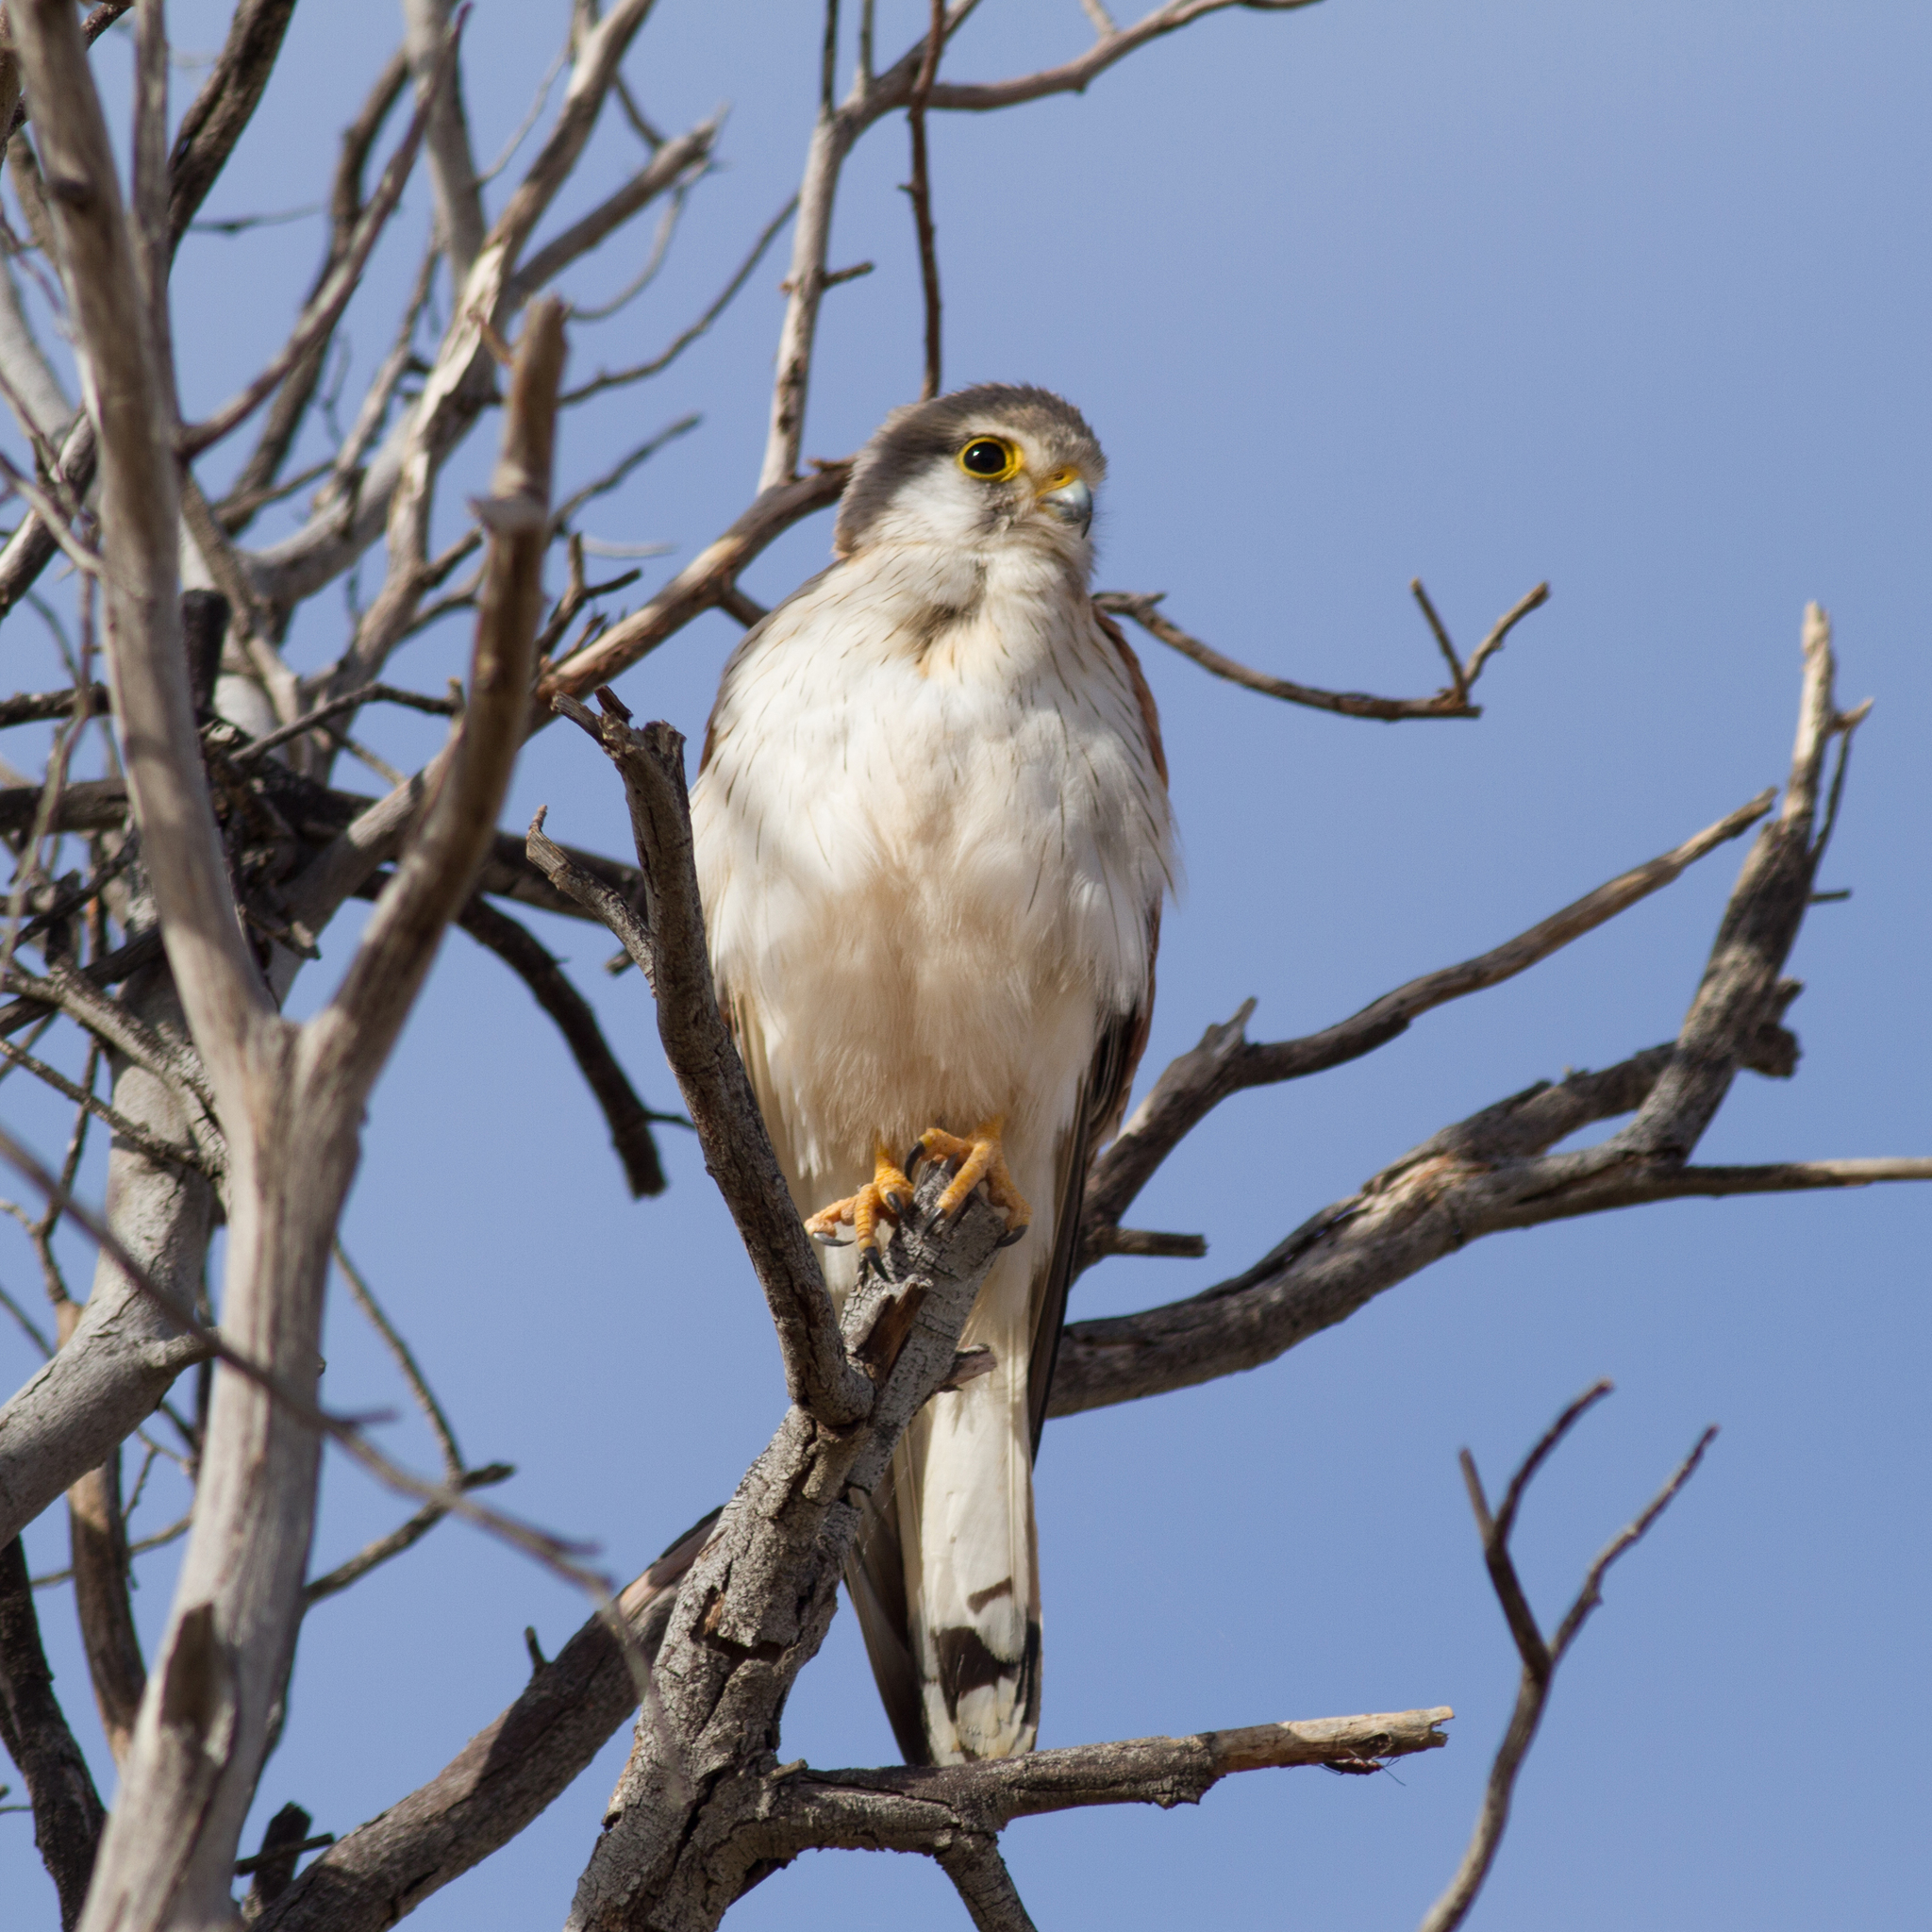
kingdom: Animalia
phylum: Chordata
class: Aves
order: Falconiformes
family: Falconidae
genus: Falco
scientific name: Falco cenchroides
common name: Nankeen kestrel
